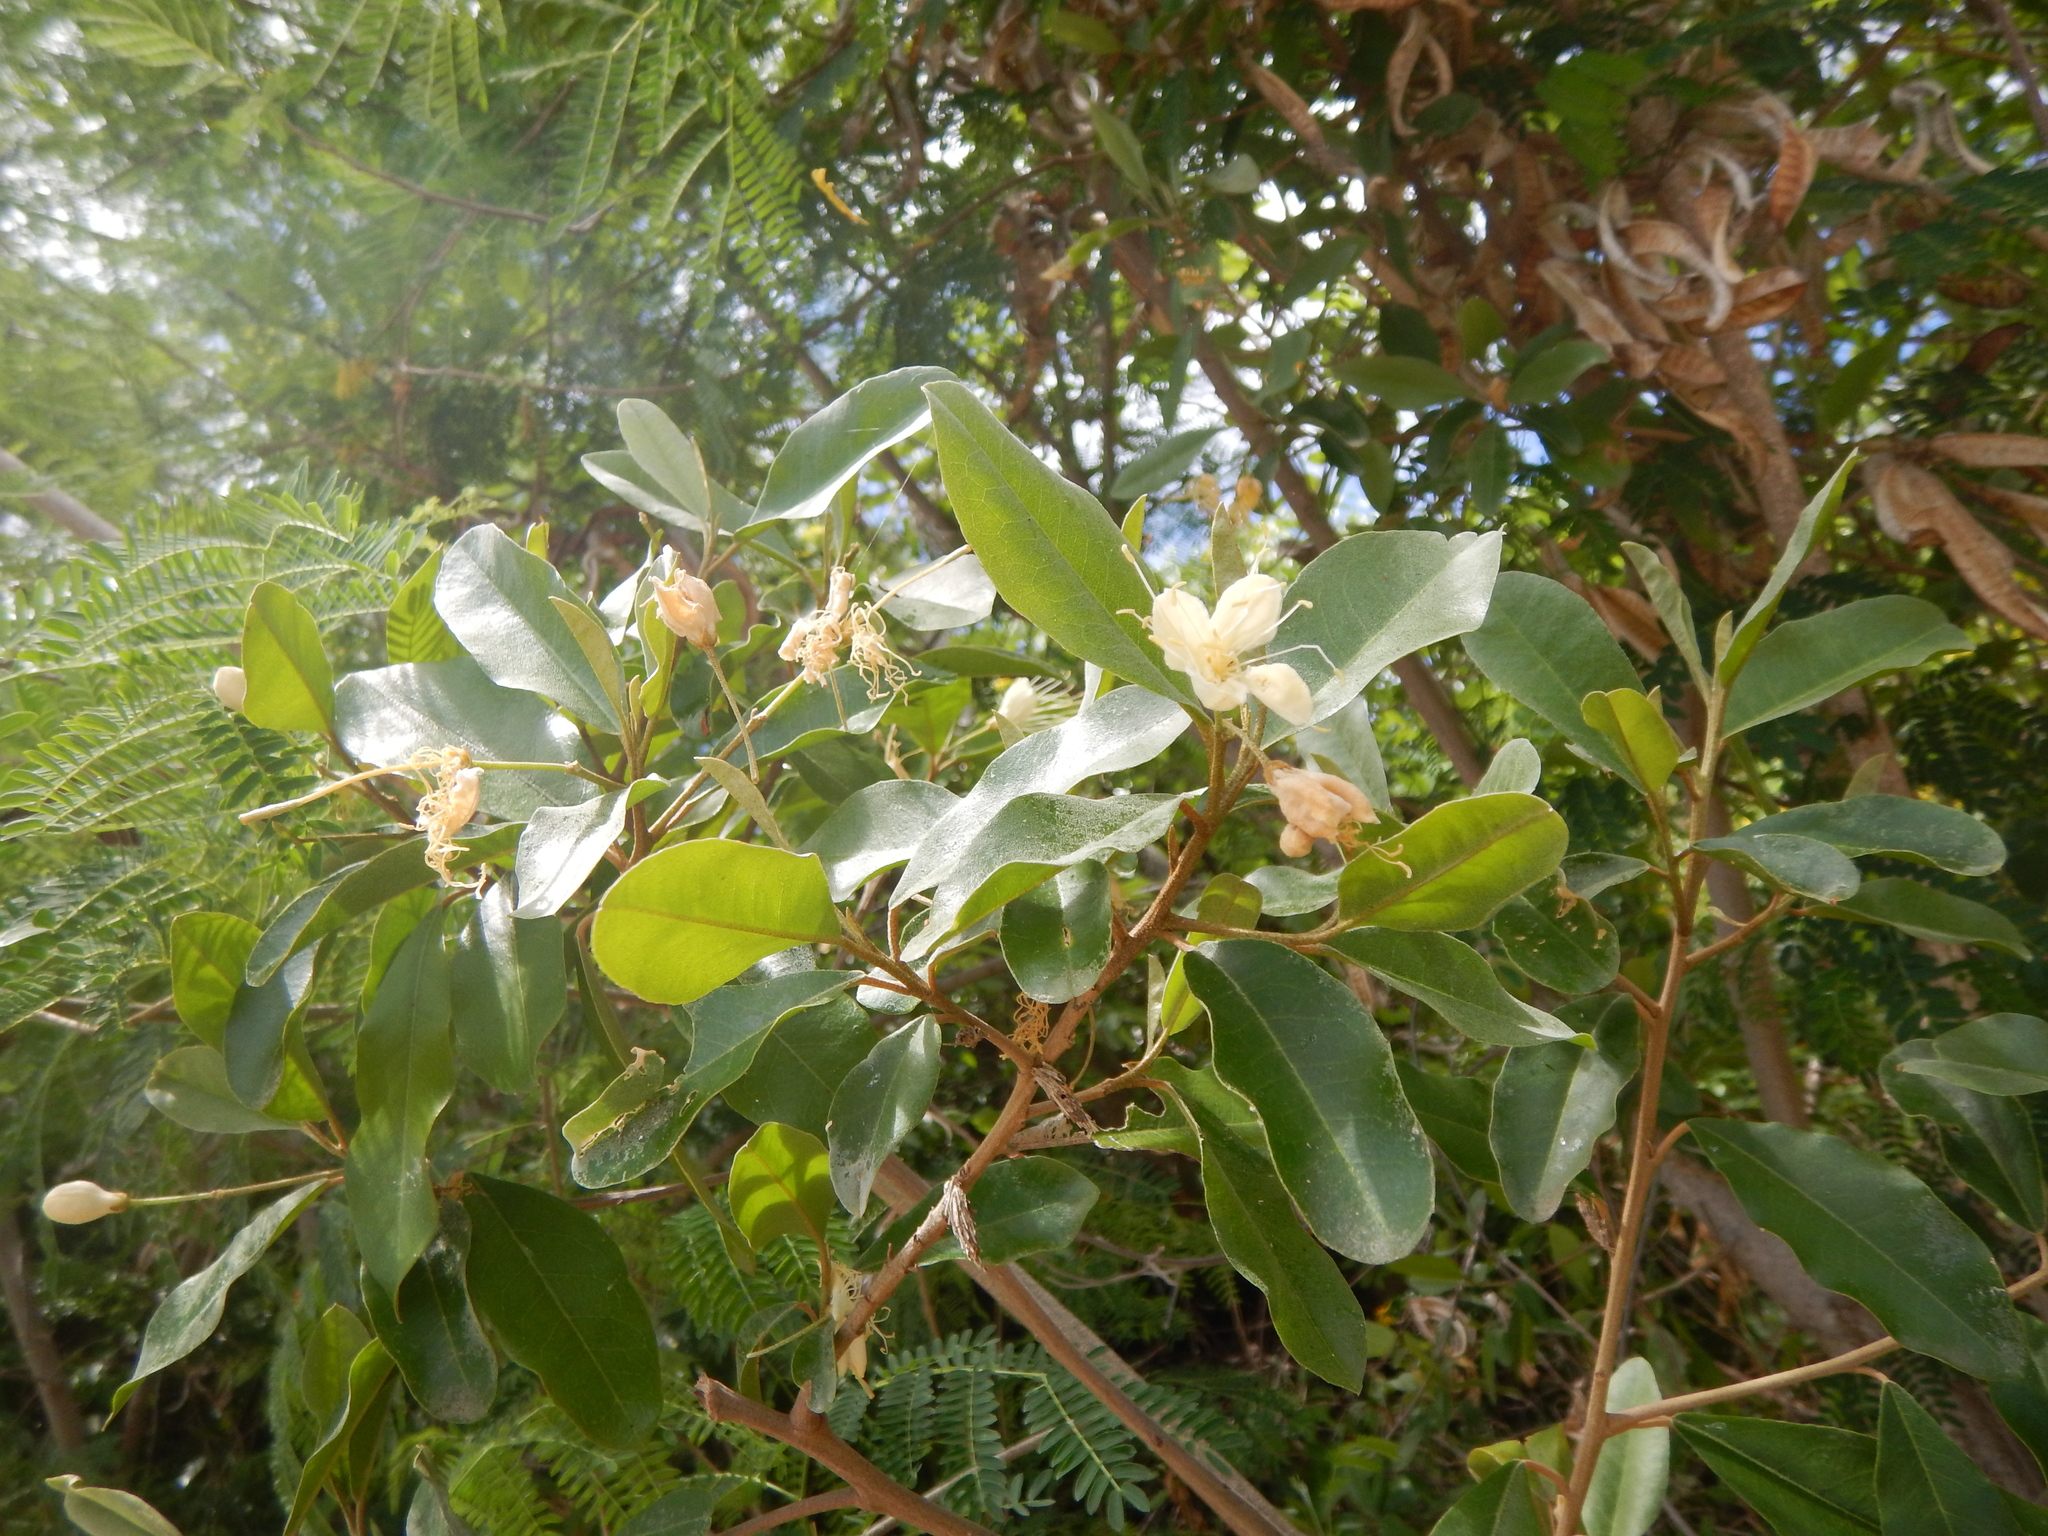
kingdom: Plantae
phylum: Tracheophyta
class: Magnoliopsida
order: Brassicales
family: Capparaceae
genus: Quadrella
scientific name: Quadrella indica
